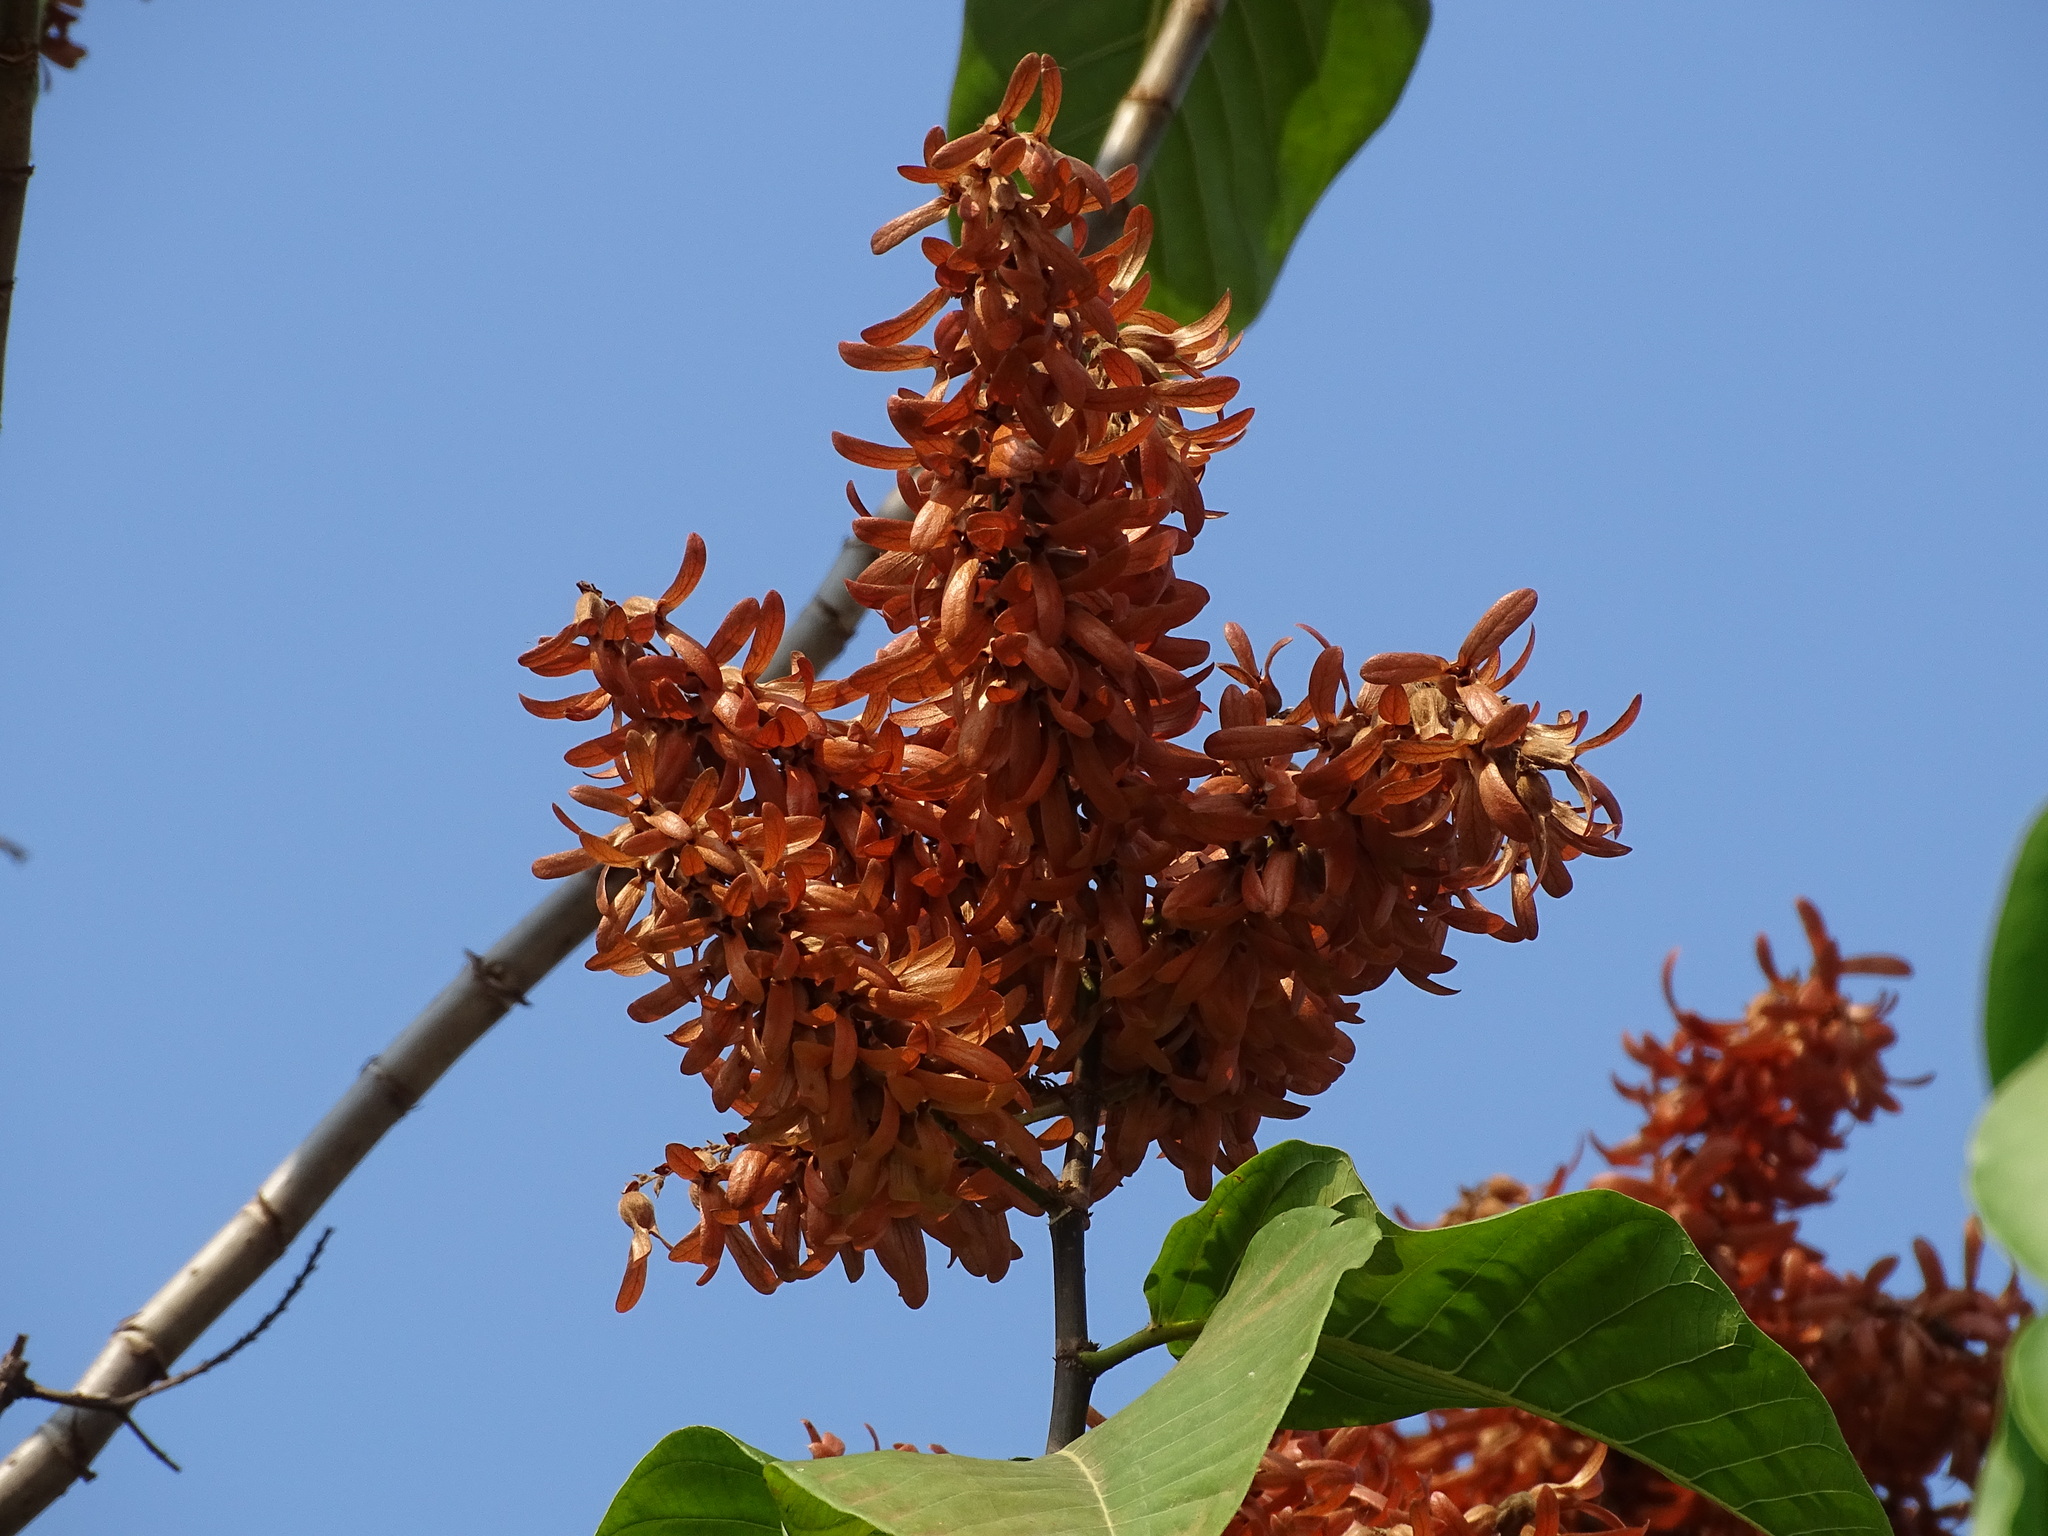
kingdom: Plantae
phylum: Tracheophyta
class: Magnoliopsida
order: Caryophyllales
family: Polygonaceae
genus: Triplaris
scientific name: Triplaris melaenodendron
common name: Long john
